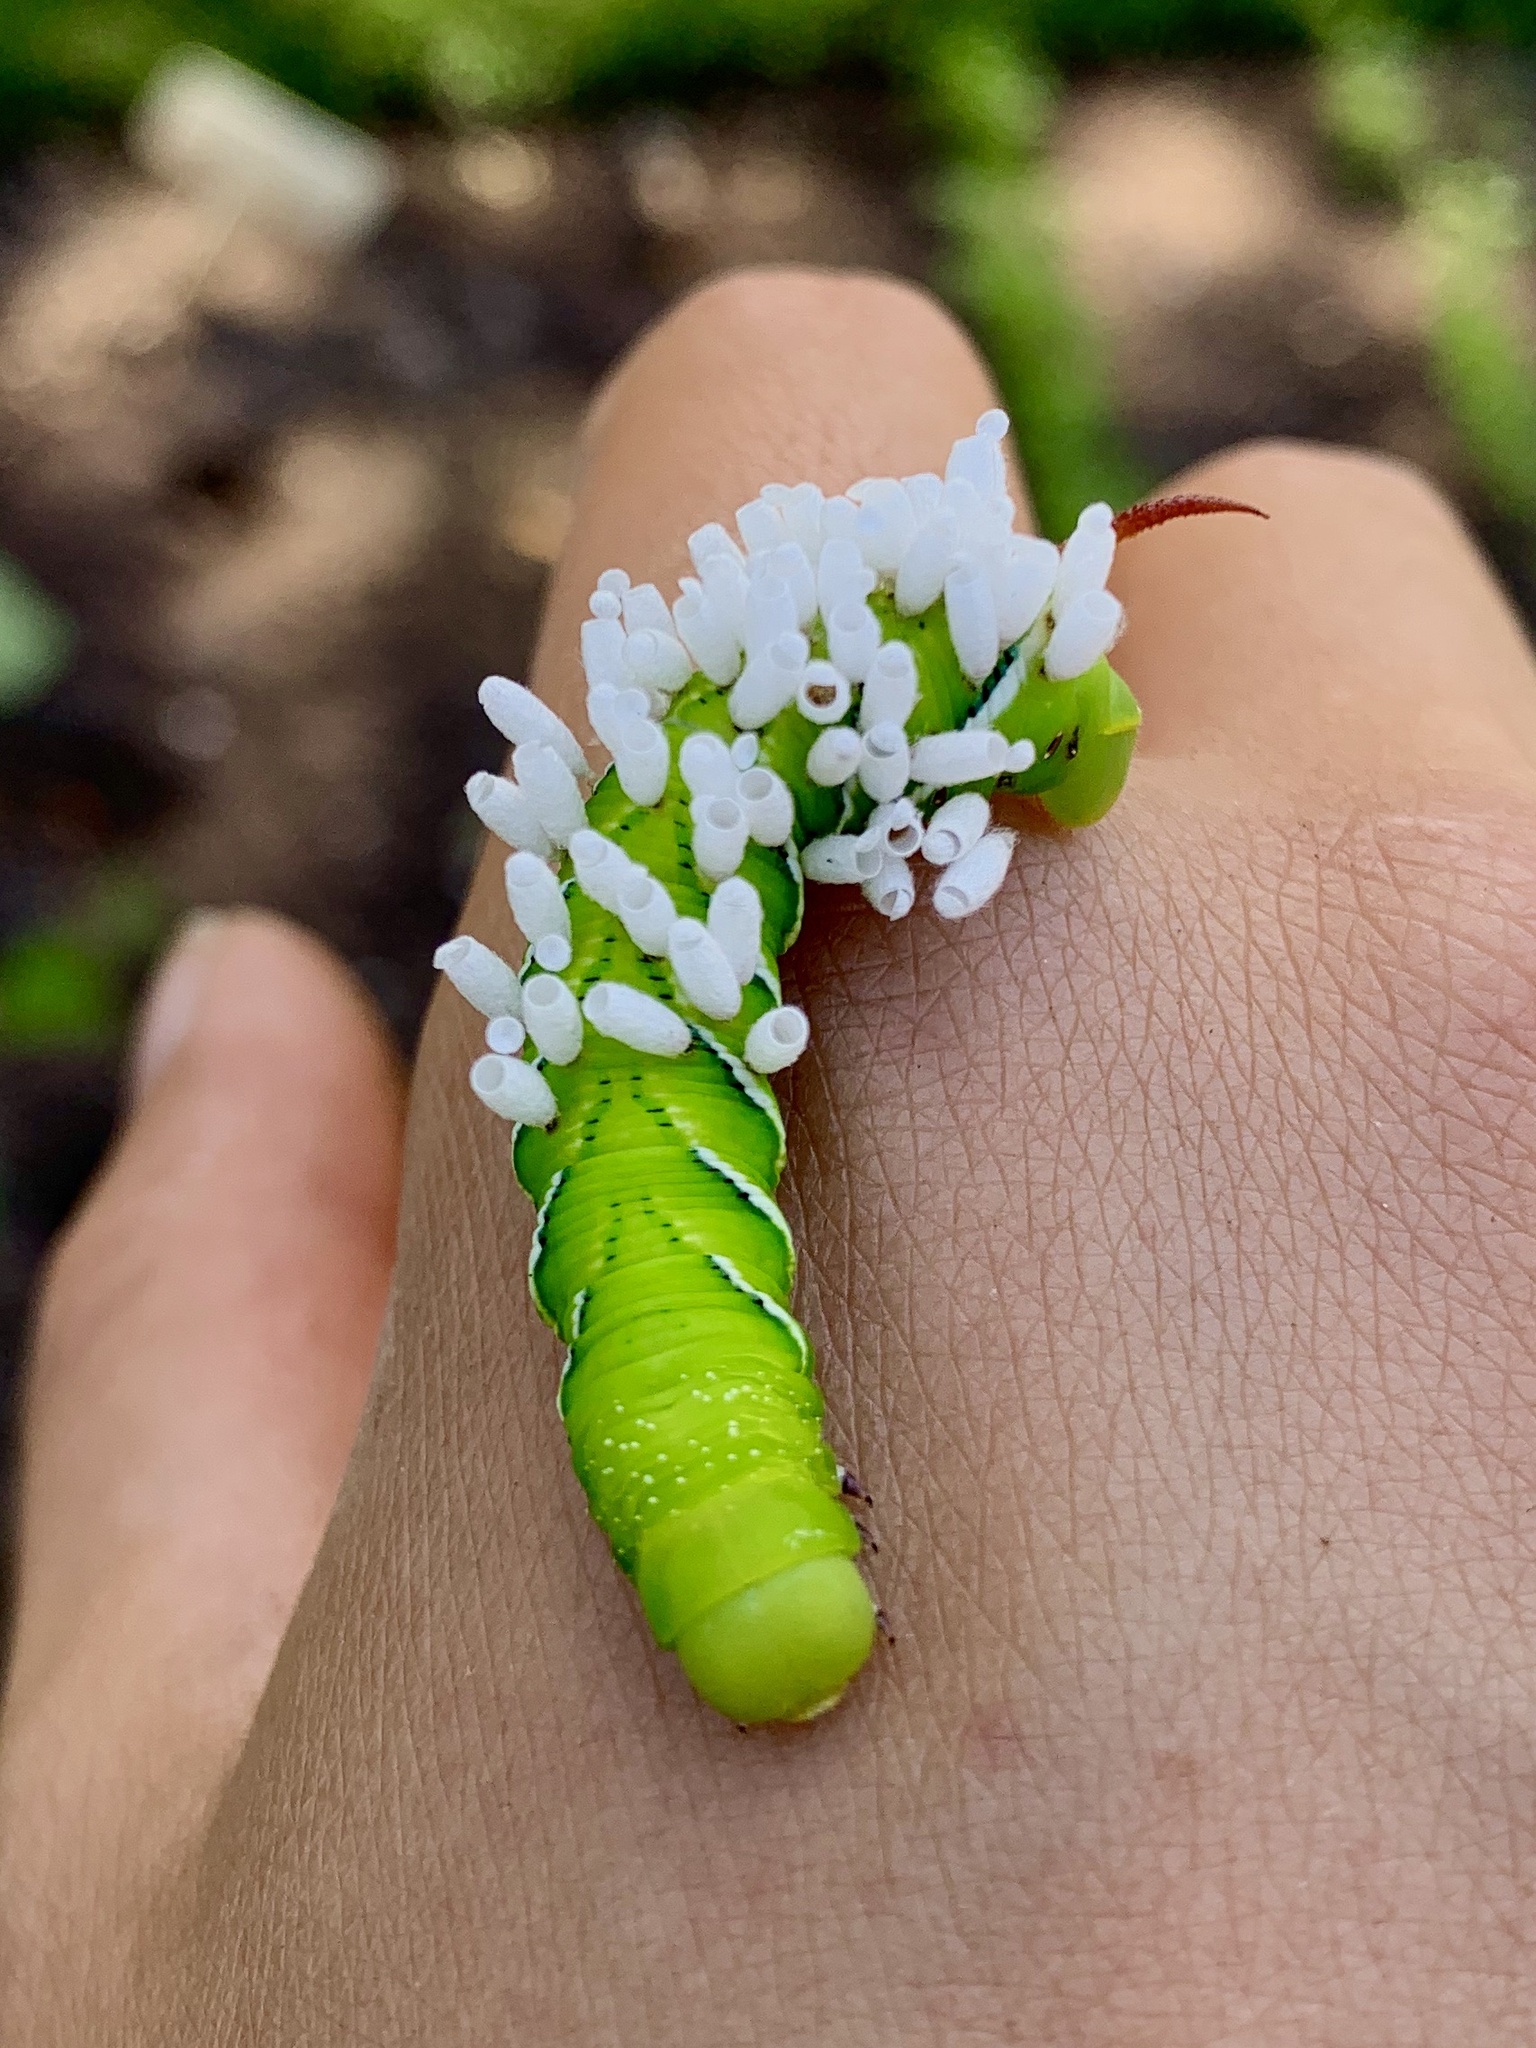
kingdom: Animalia
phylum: Arthropoda
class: Insecta
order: Lepidoptera
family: Sphingidae
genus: Manduca
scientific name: Manduca sexta
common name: Carolina sphinx
